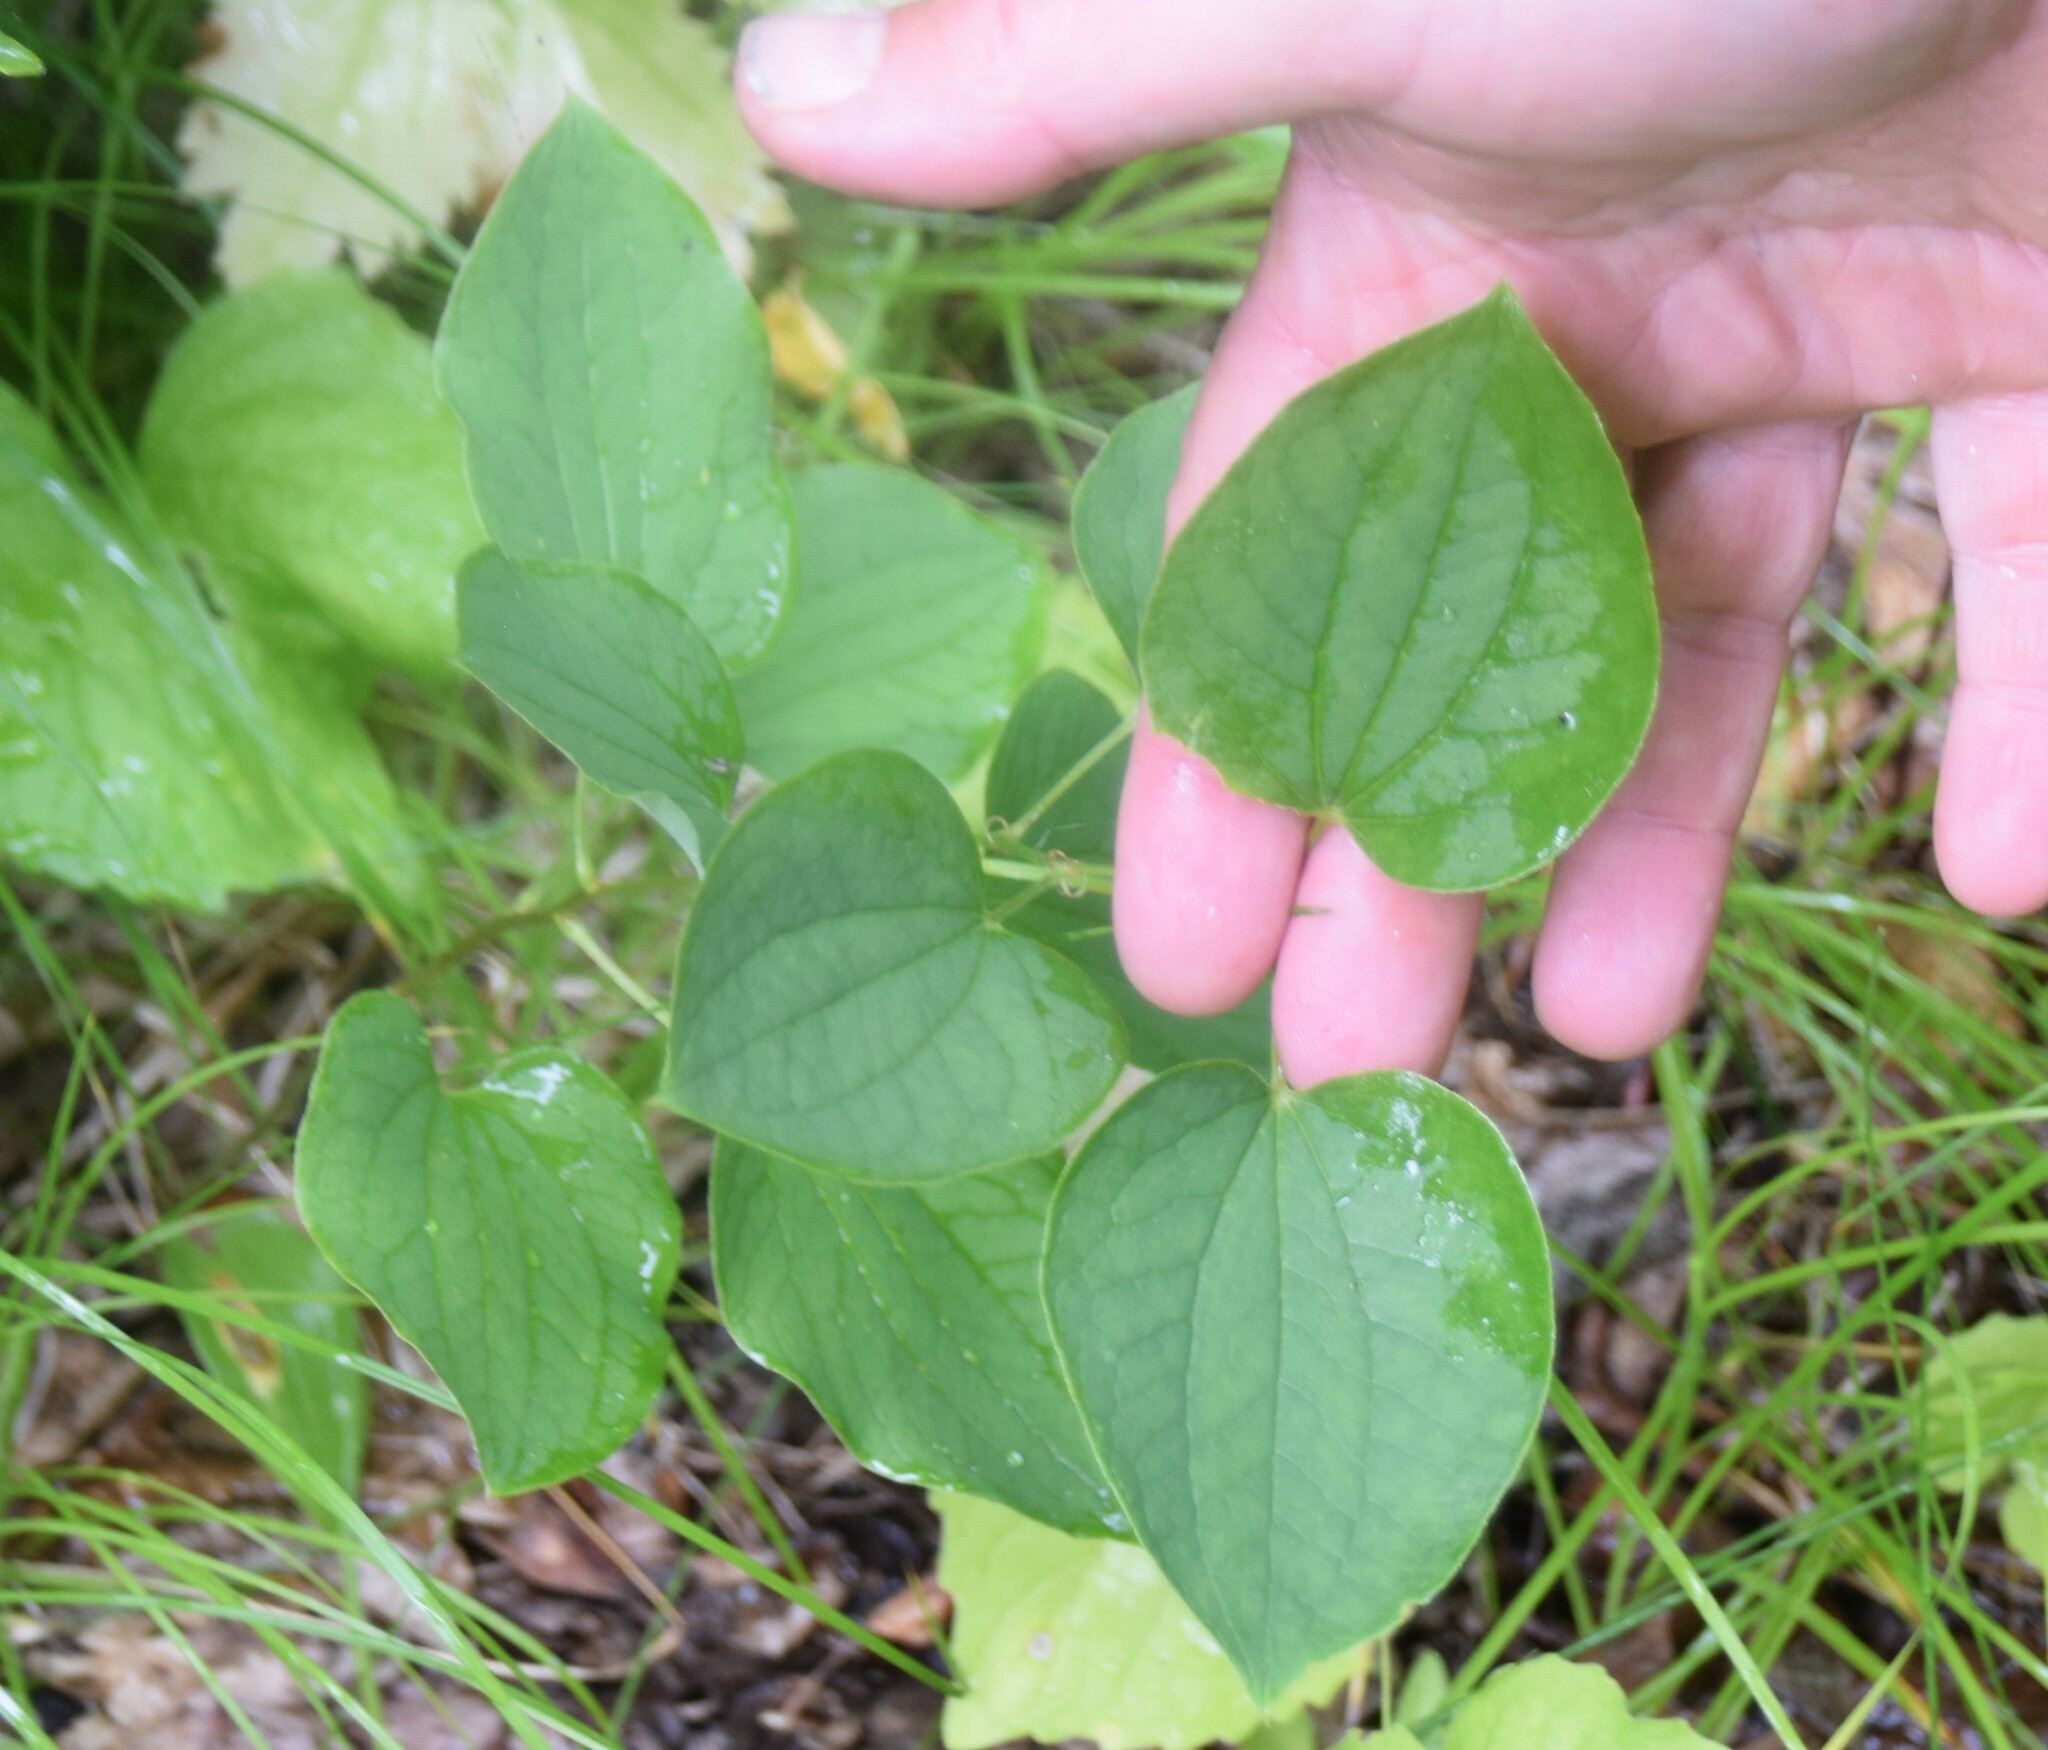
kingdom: Plantae
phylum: Tracheophyta
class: Liliopsida
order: Liliales
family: Smilacaceae
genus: Smilax
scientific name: Smilax lasioneura
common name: Blue ridge carrionflower
